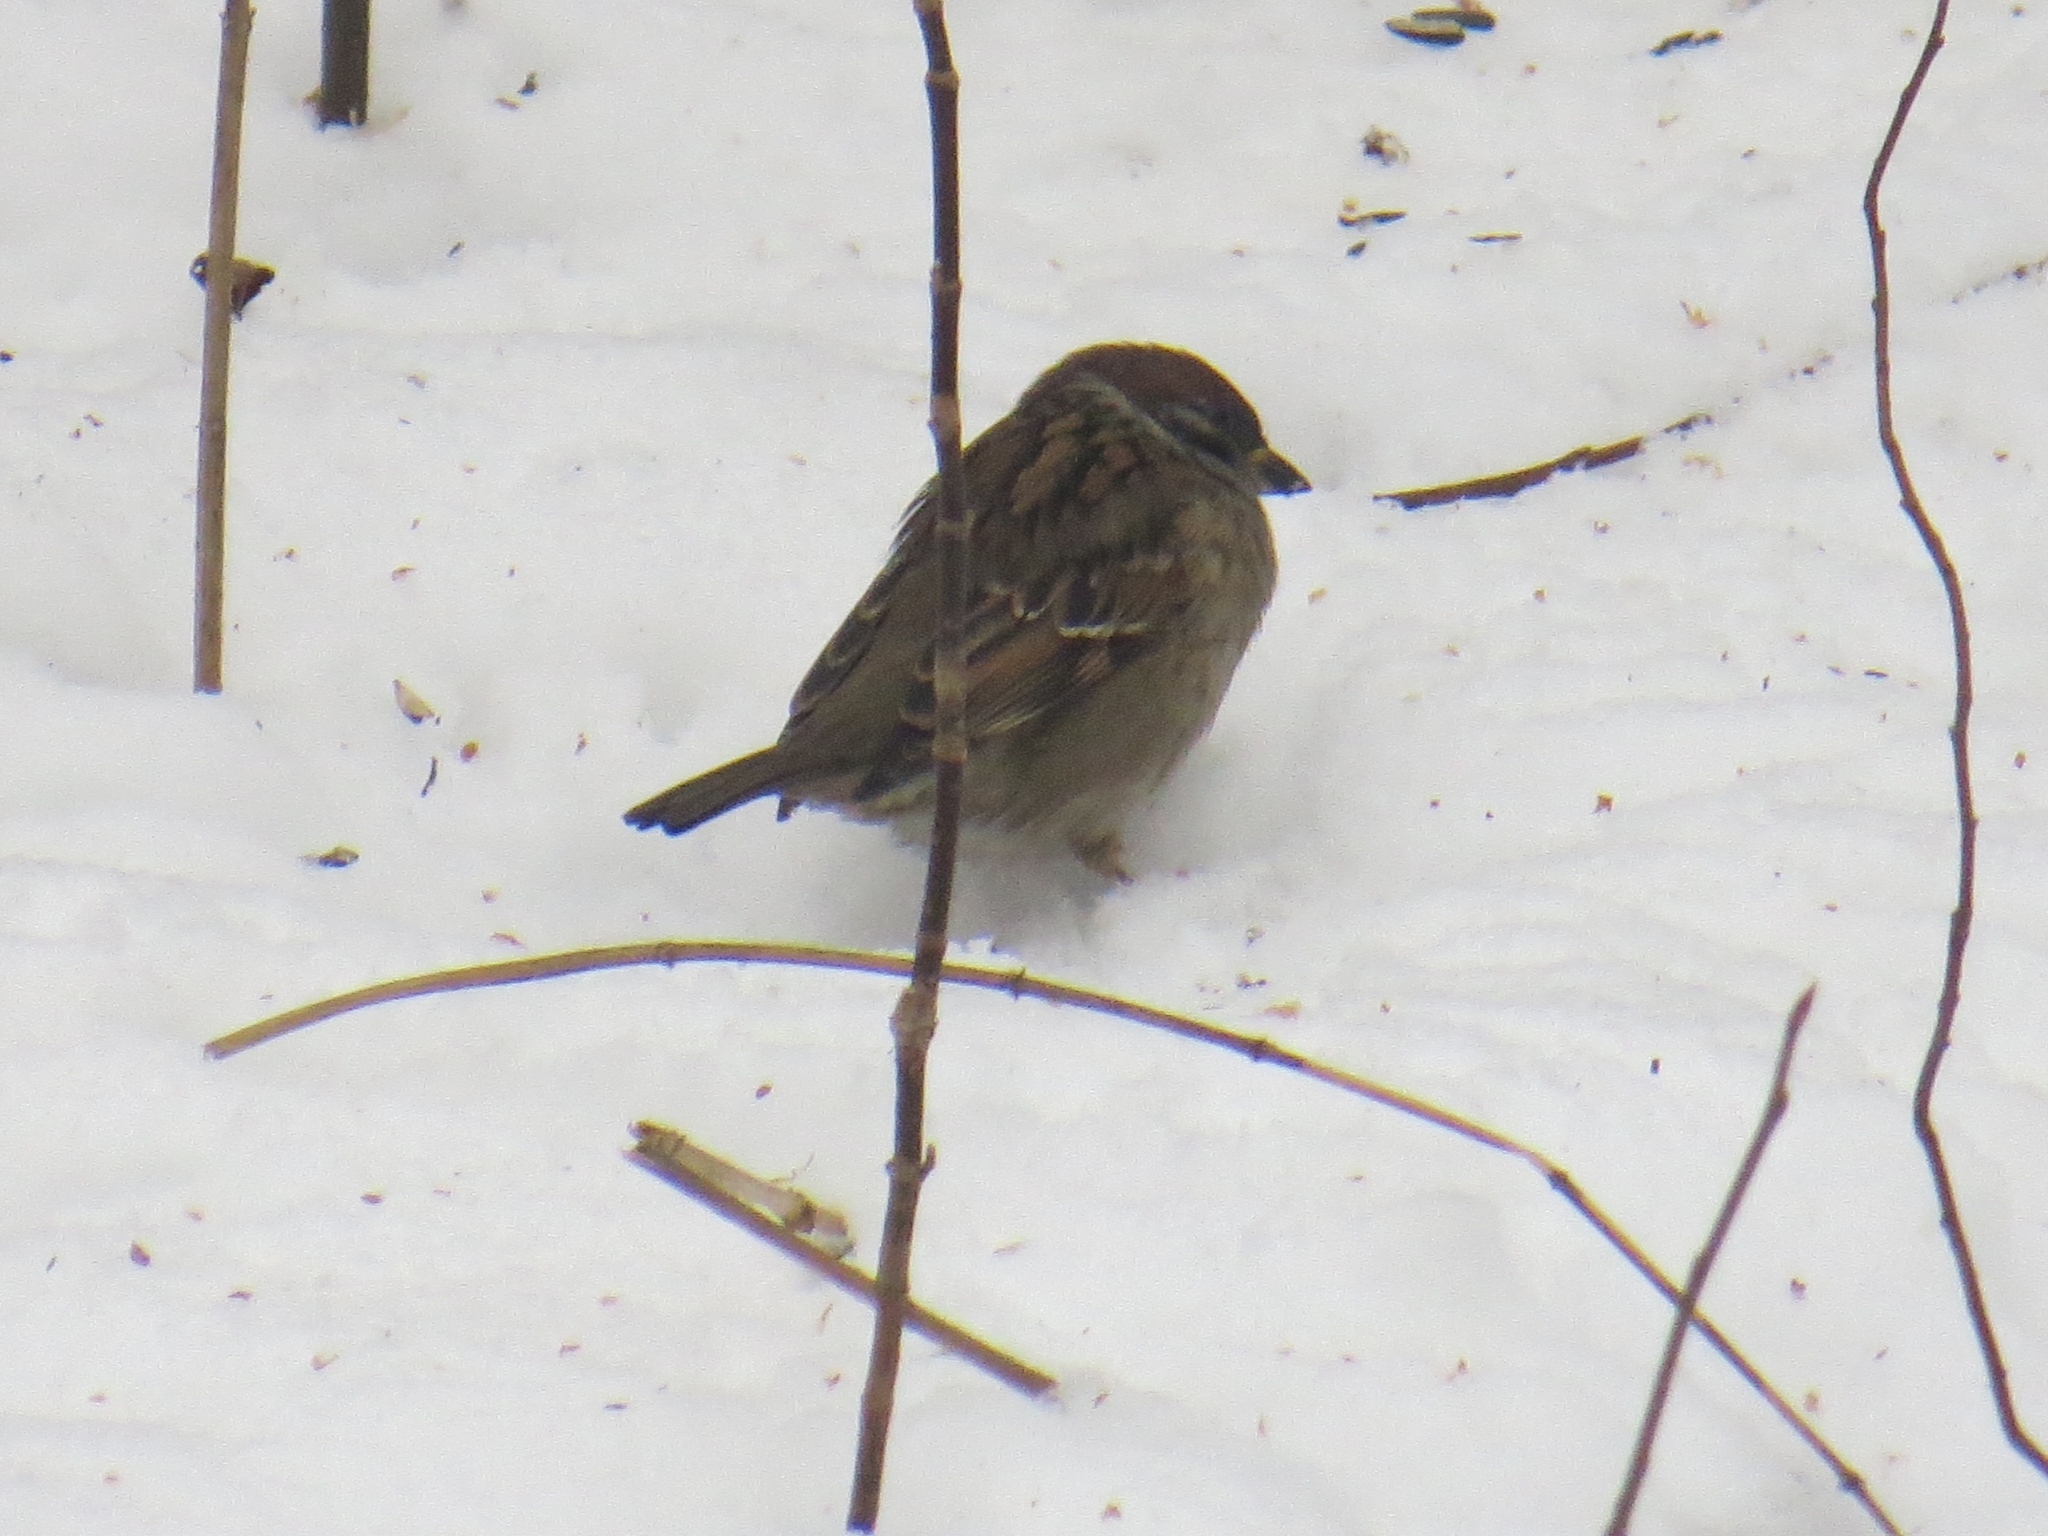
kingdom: Animalia
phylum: Chordata
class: Aves
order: Passeriformes
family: Passeridae
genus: Passer
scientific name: Passer montanus
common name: Eurasian tree sparrow
